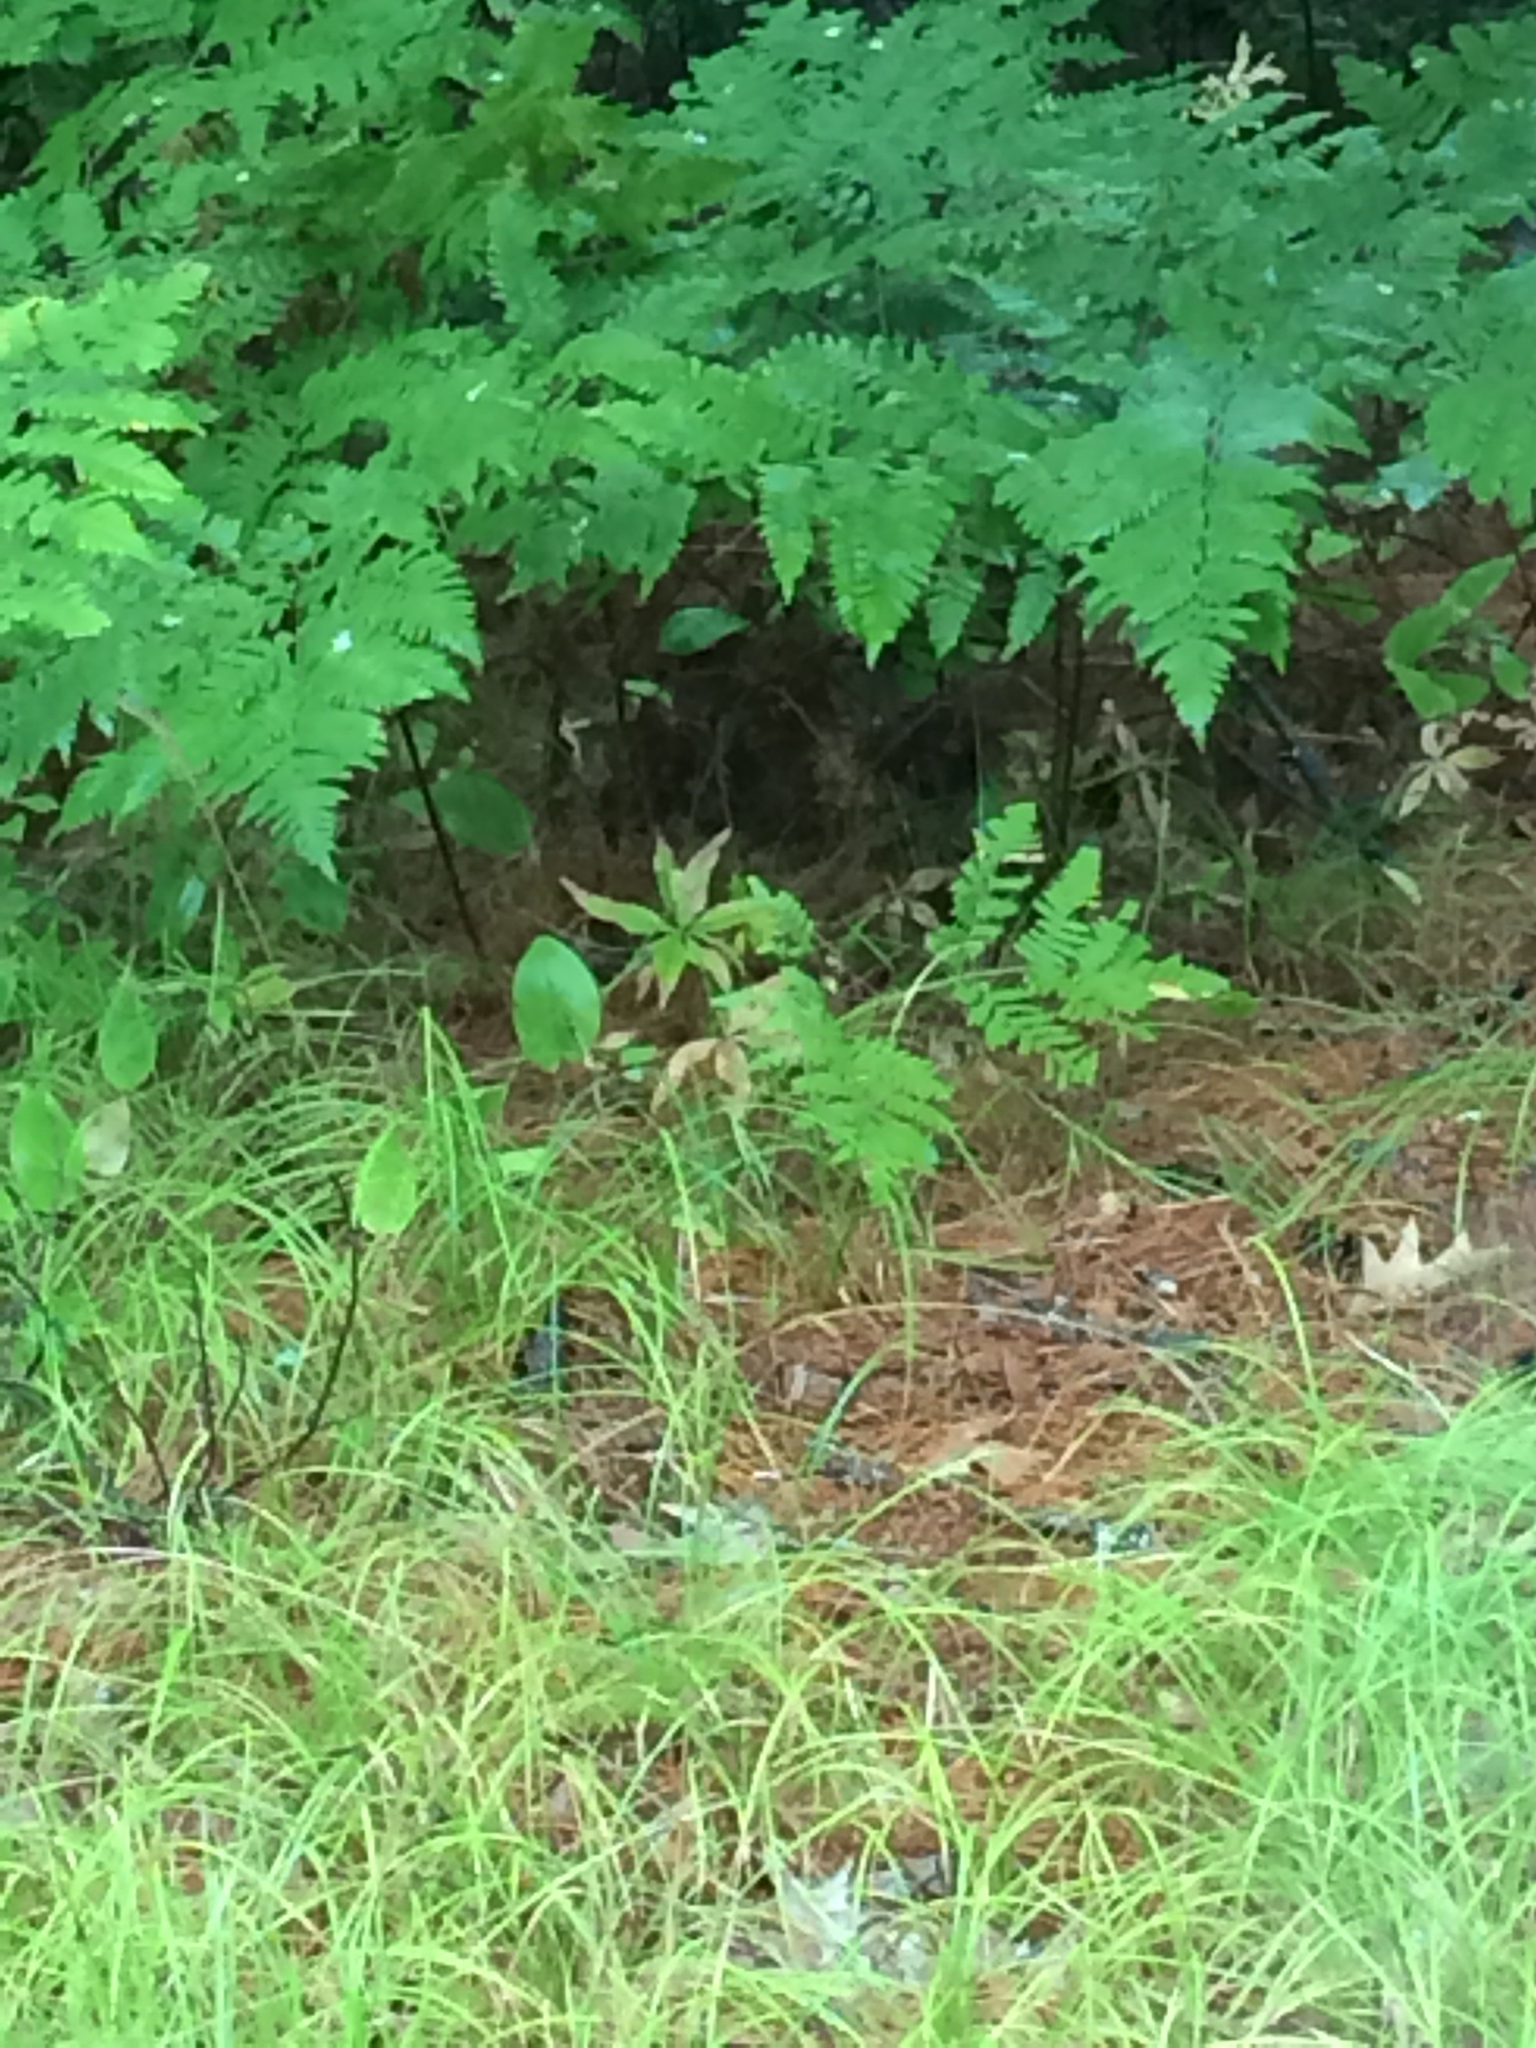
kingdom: Plantae
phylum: Tracheophyta
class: Magnoliopsida
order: Ericales
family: Primulaceae
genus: Lysimachia
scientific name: Lysimachia borealis
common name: American starflower
